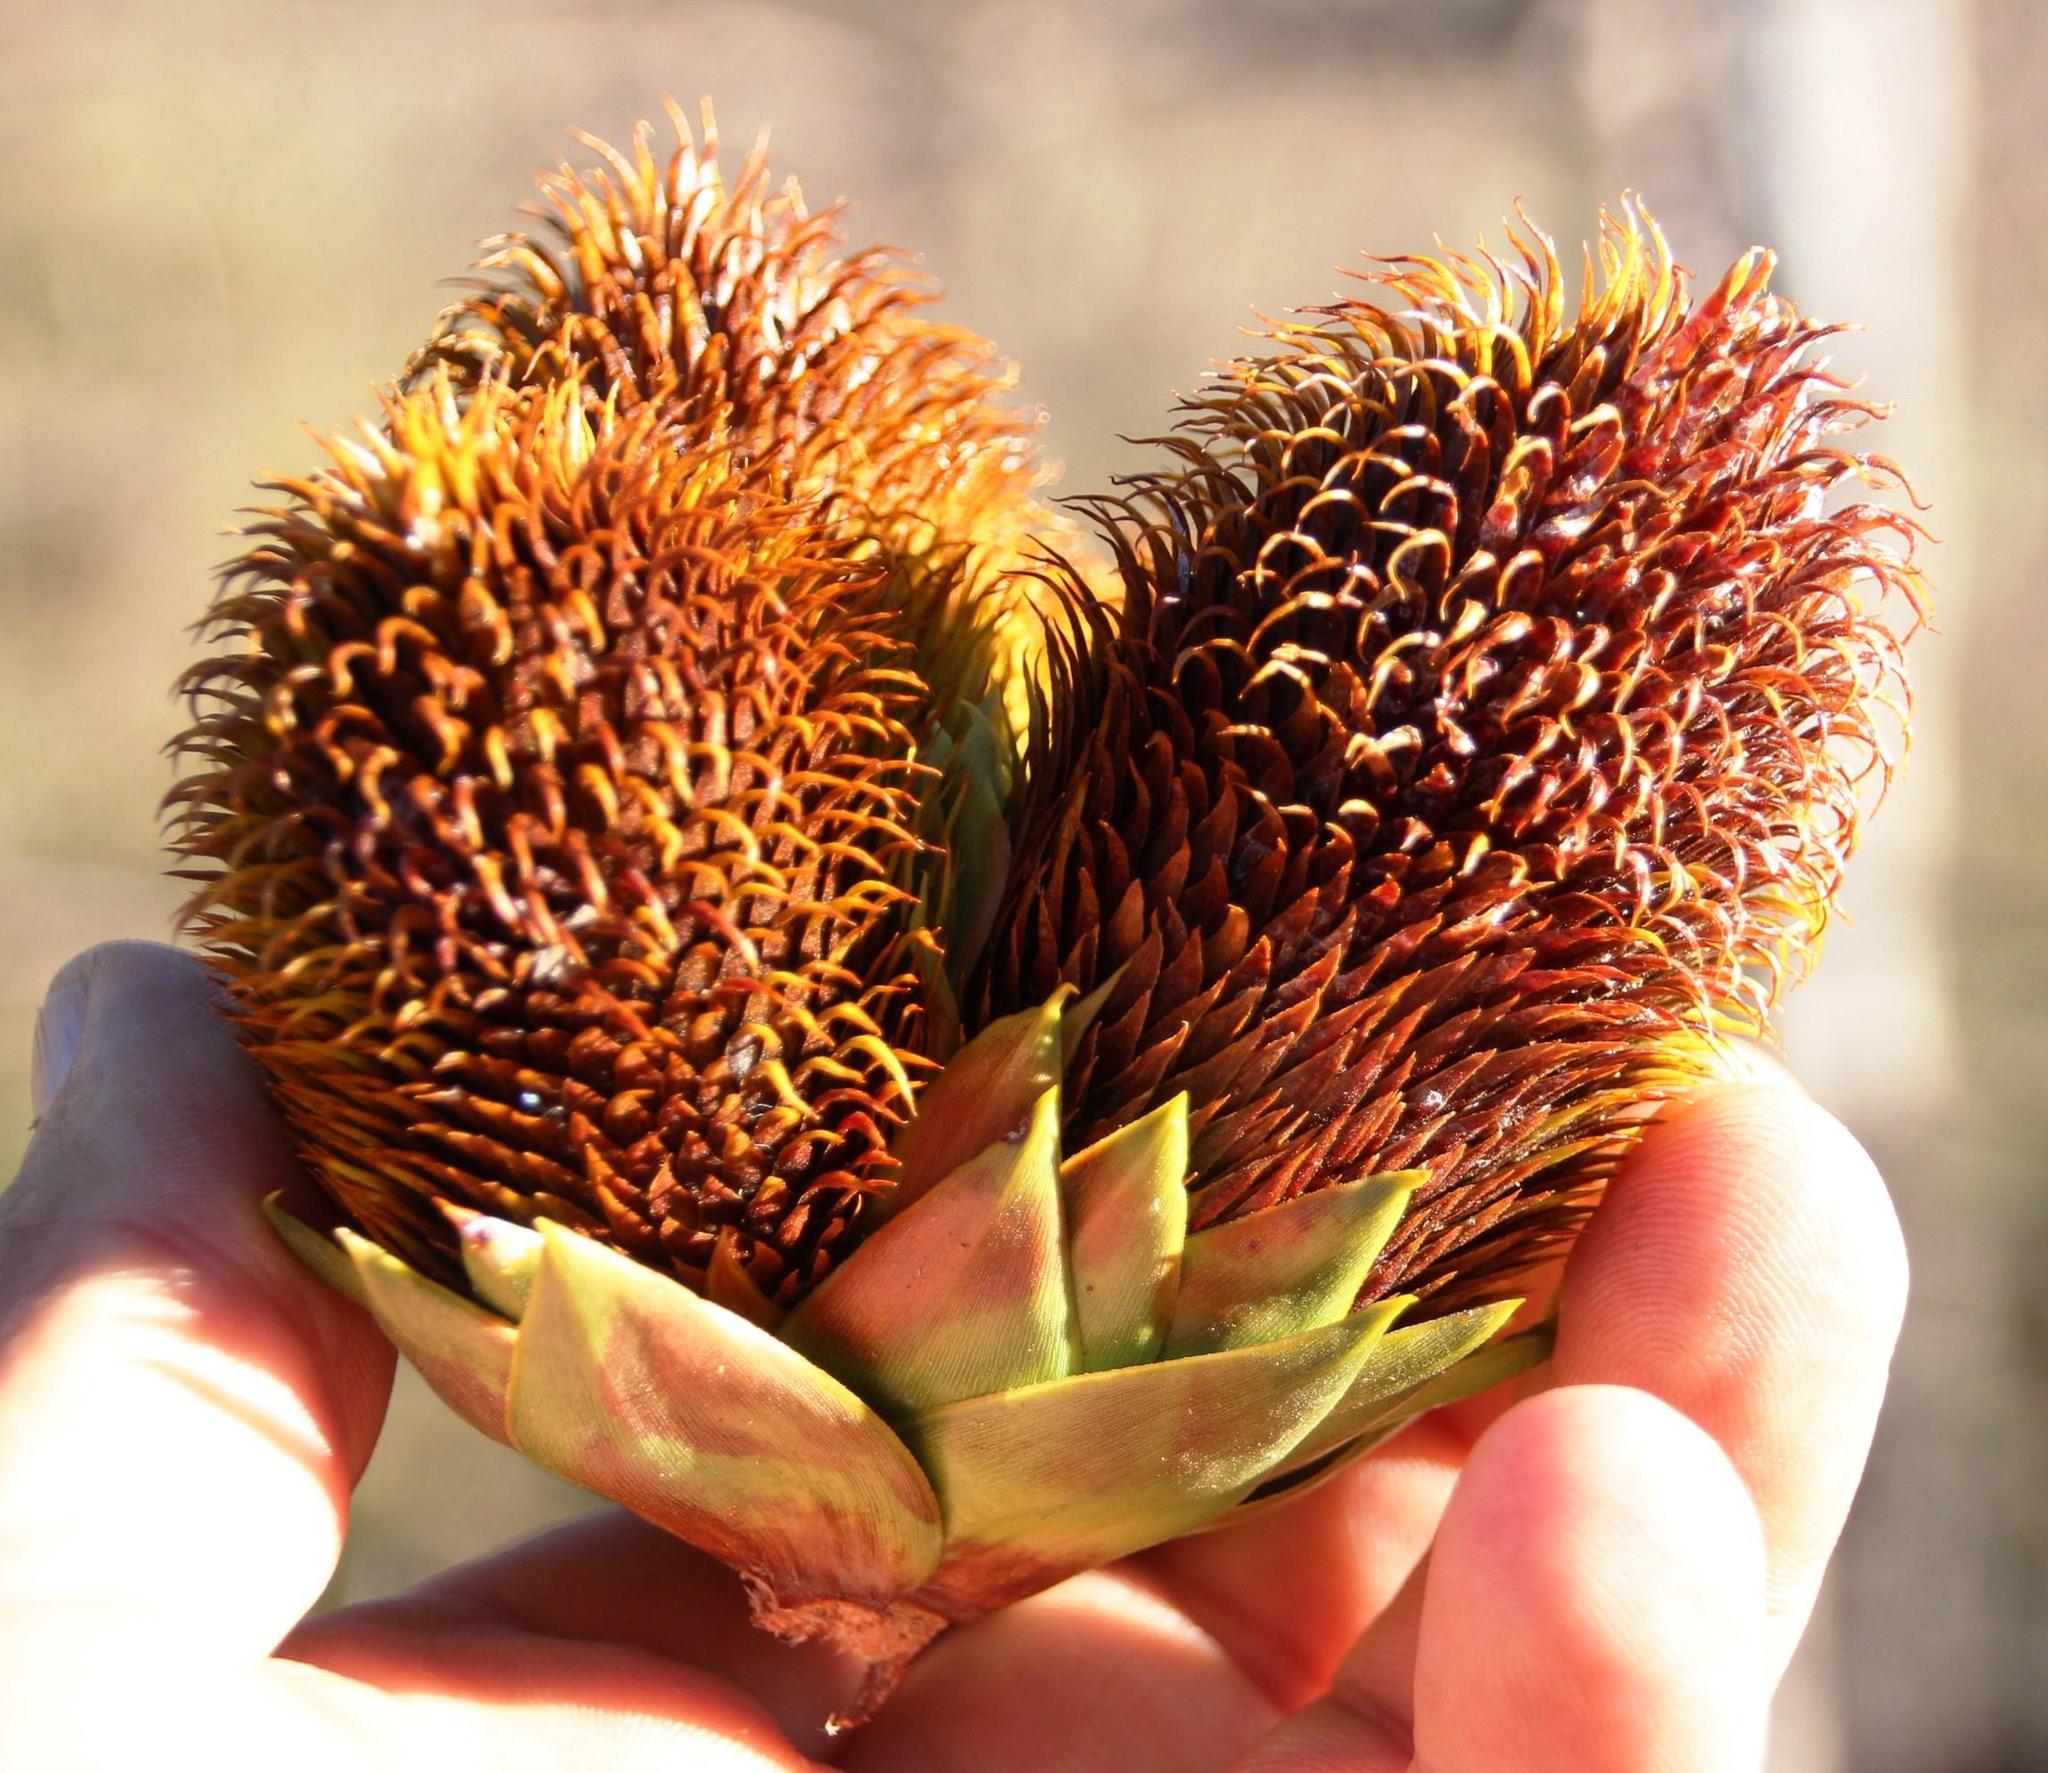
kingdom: Plantae
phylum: Tracheophyta
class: Pinopsida
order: Pinales
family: Araucariaceae
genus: Araucaria
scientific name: Araucaria araucana
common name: Monkey-puzzle
